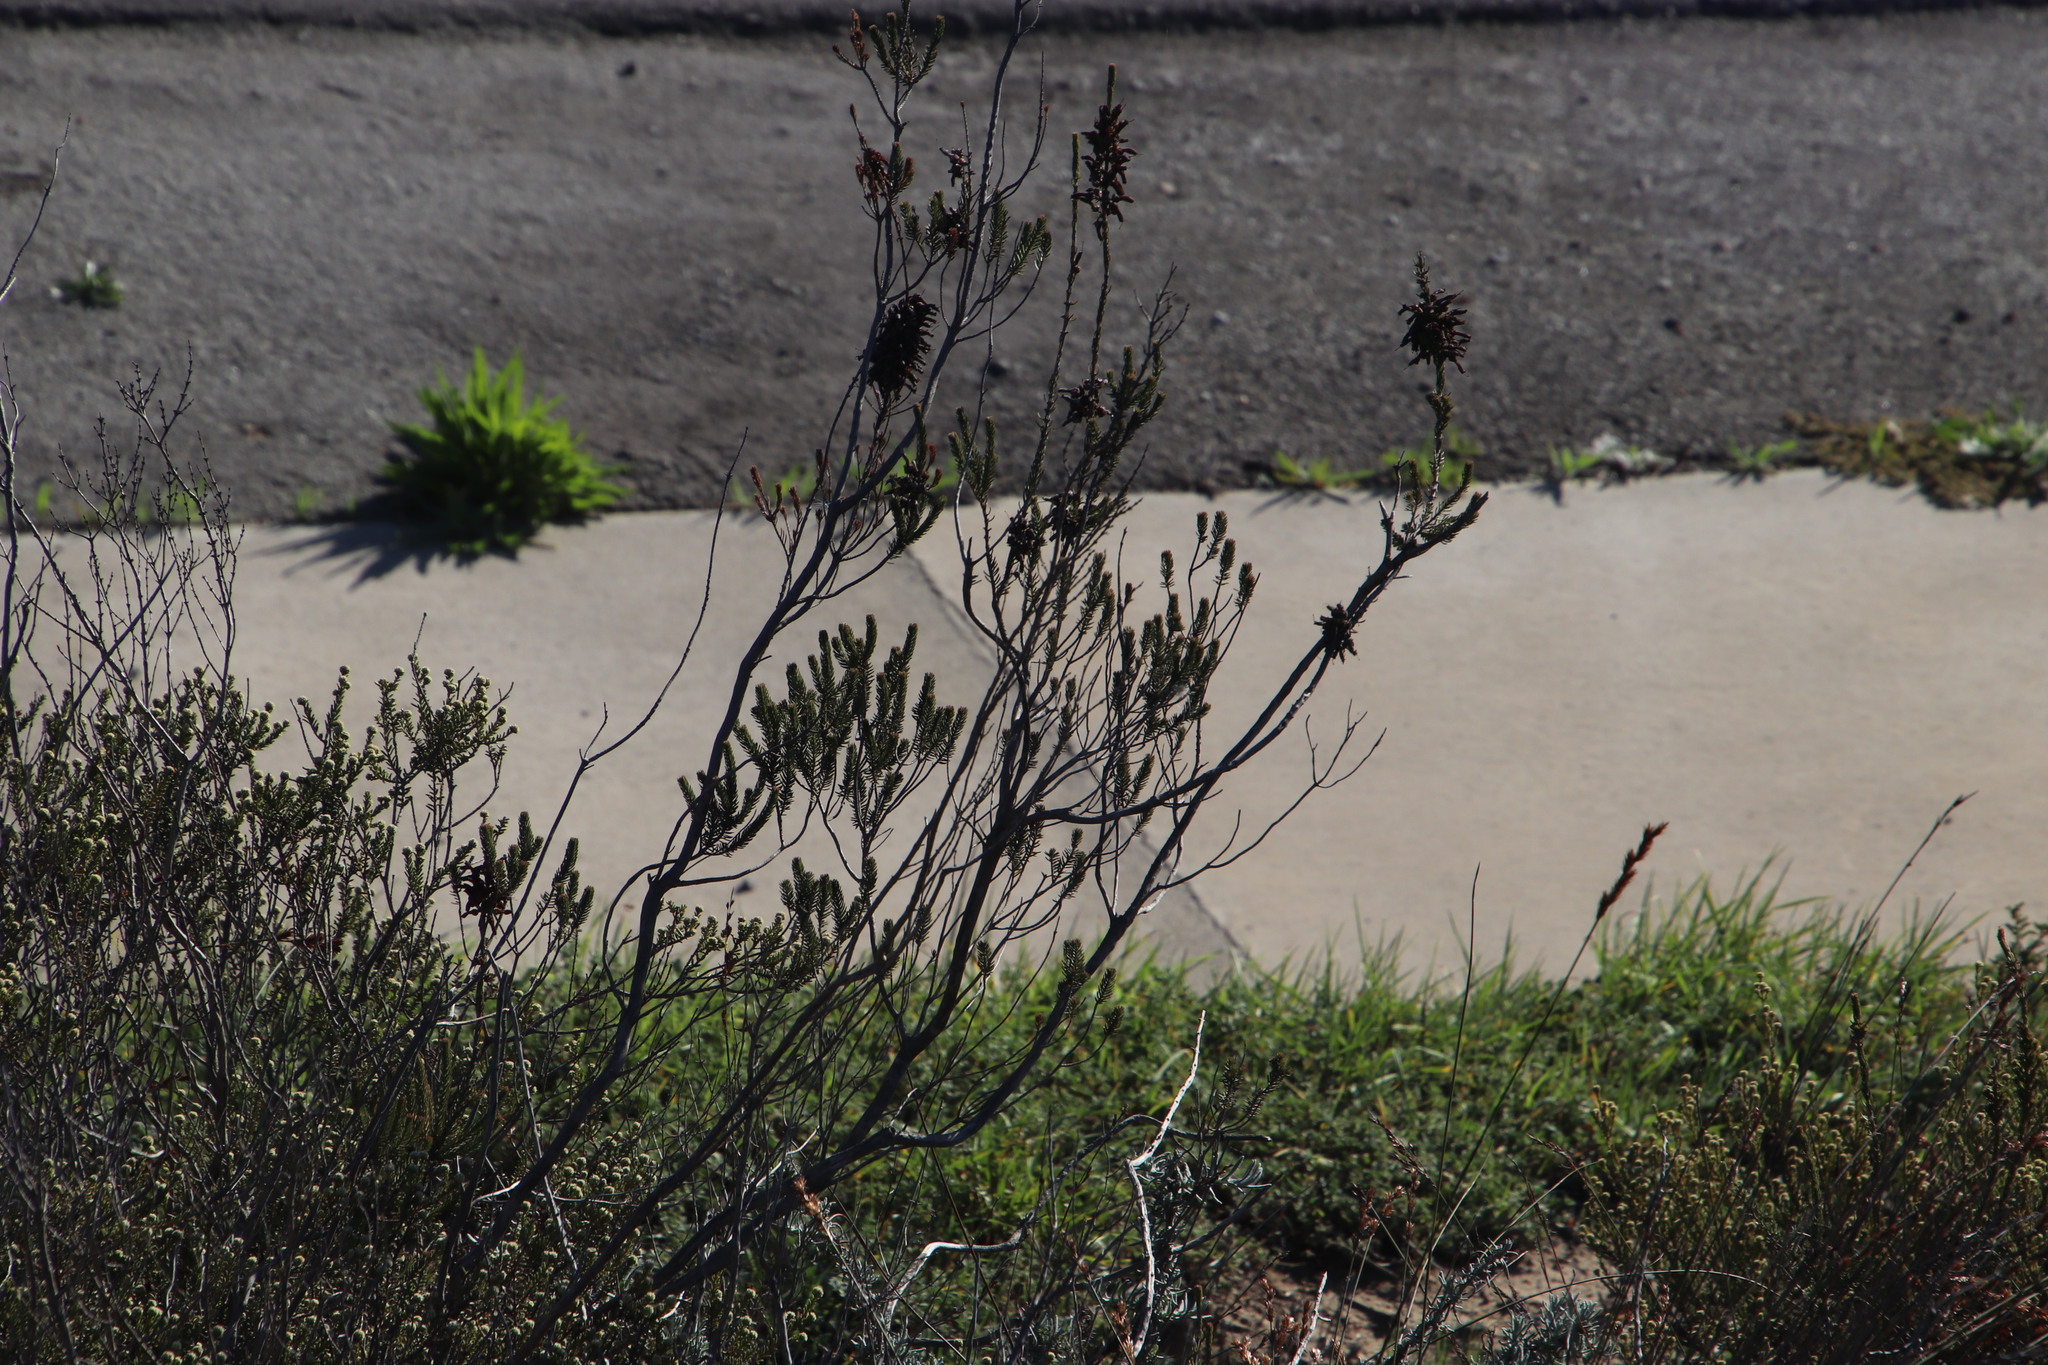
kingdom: Plantae
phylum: Tracheophyta
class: Magnoliopsida
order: Ericales
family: Ericaceae
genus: Erica
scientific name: Erica mammosa
